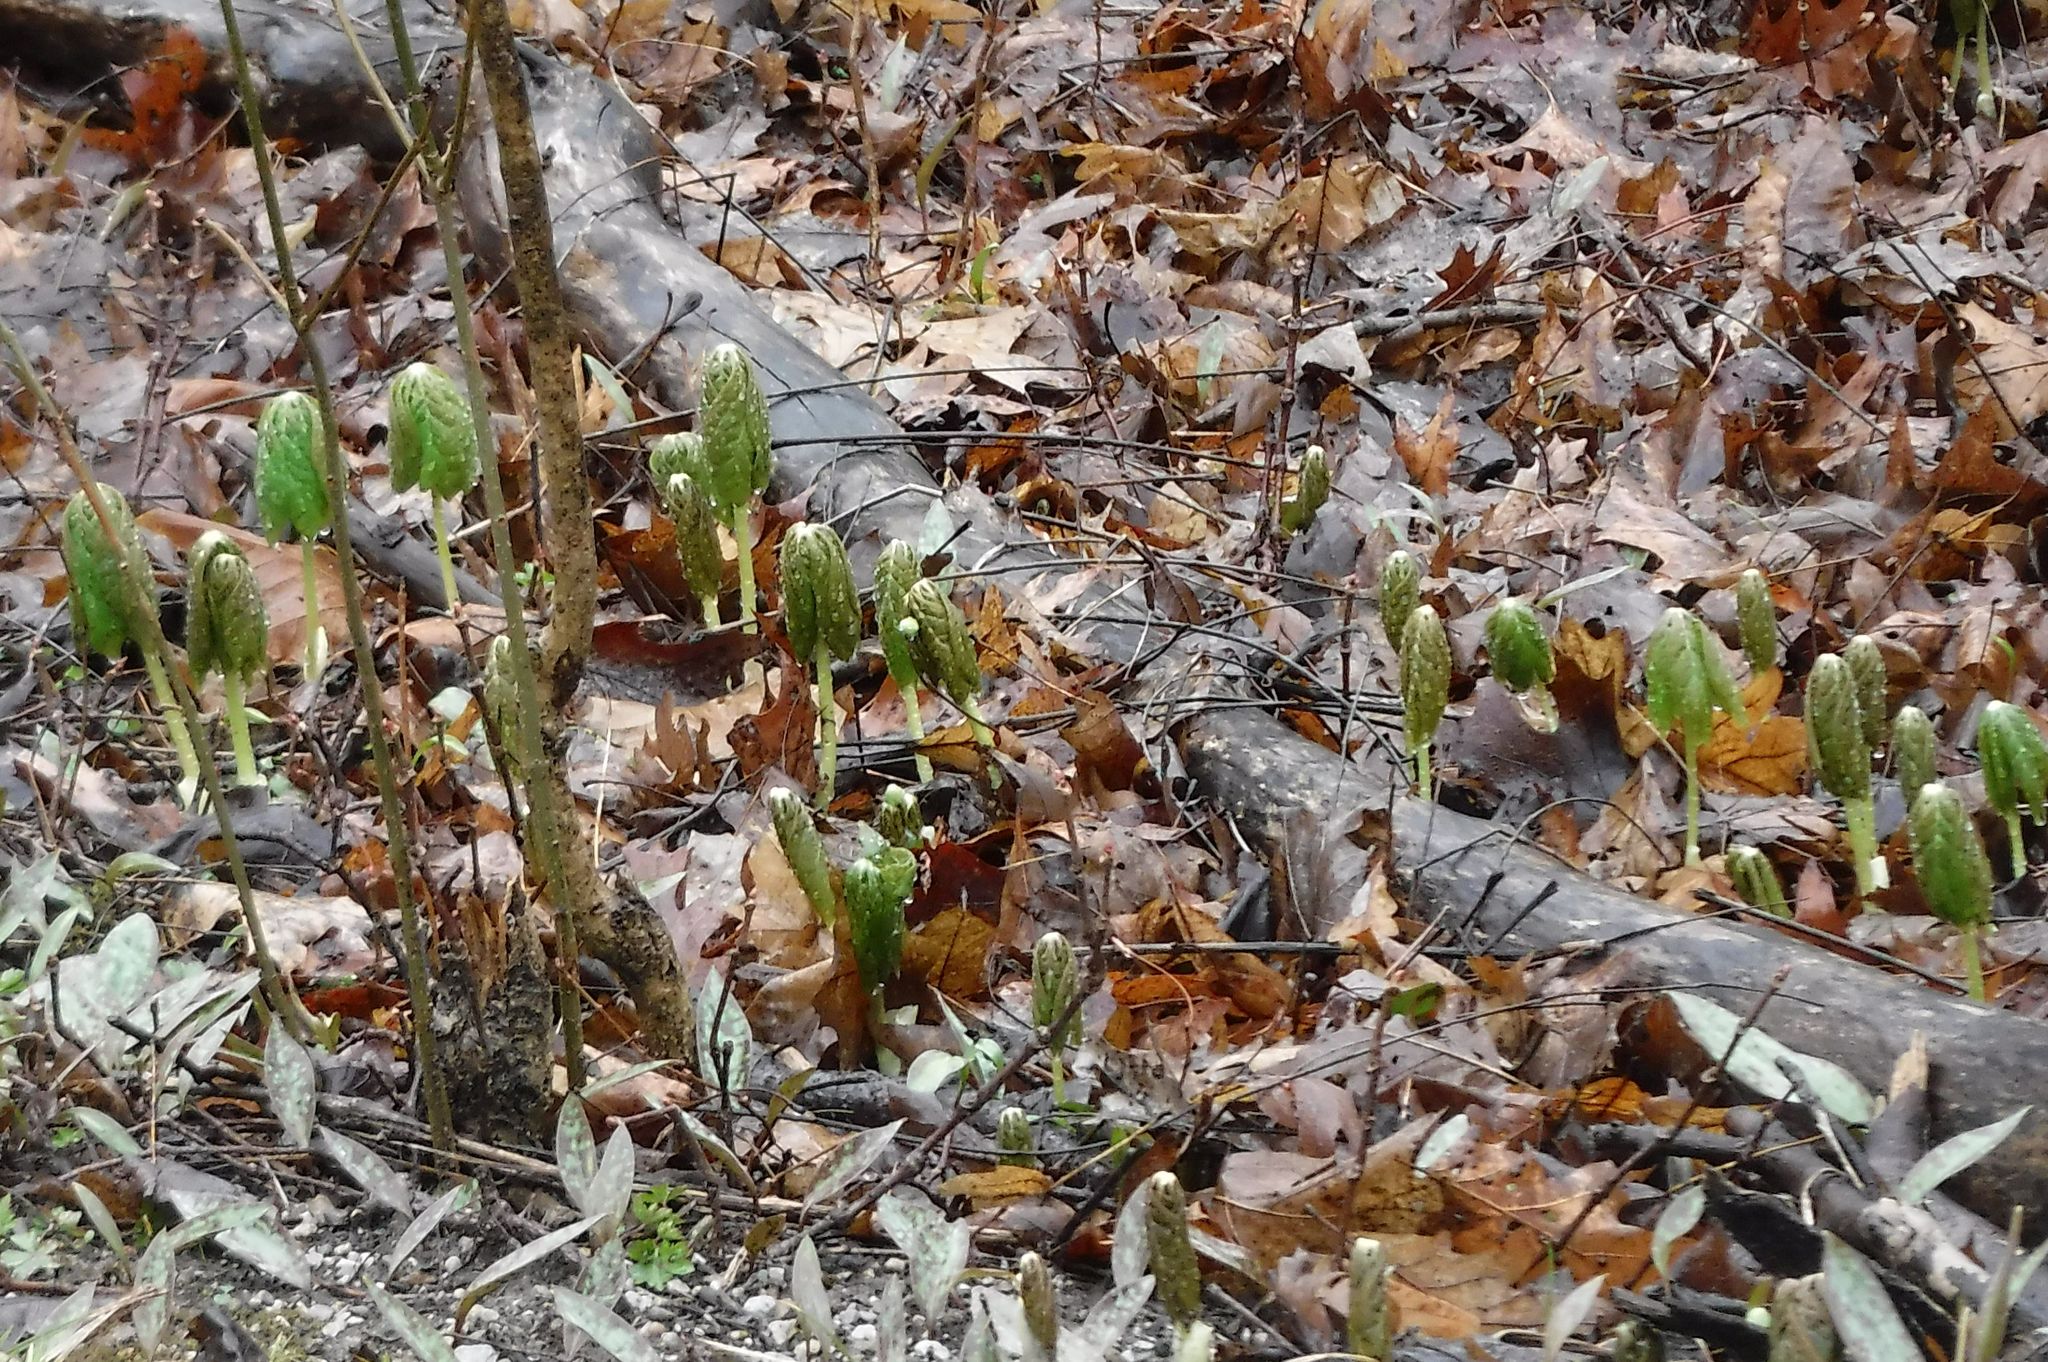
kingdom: Plantae
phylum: Tracheophyta
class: Magnoliopsida
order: Ranunculales
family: Berberidaceae
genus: Podophyllum
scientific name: Podophyllum peltatum
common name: Wild mandrake
